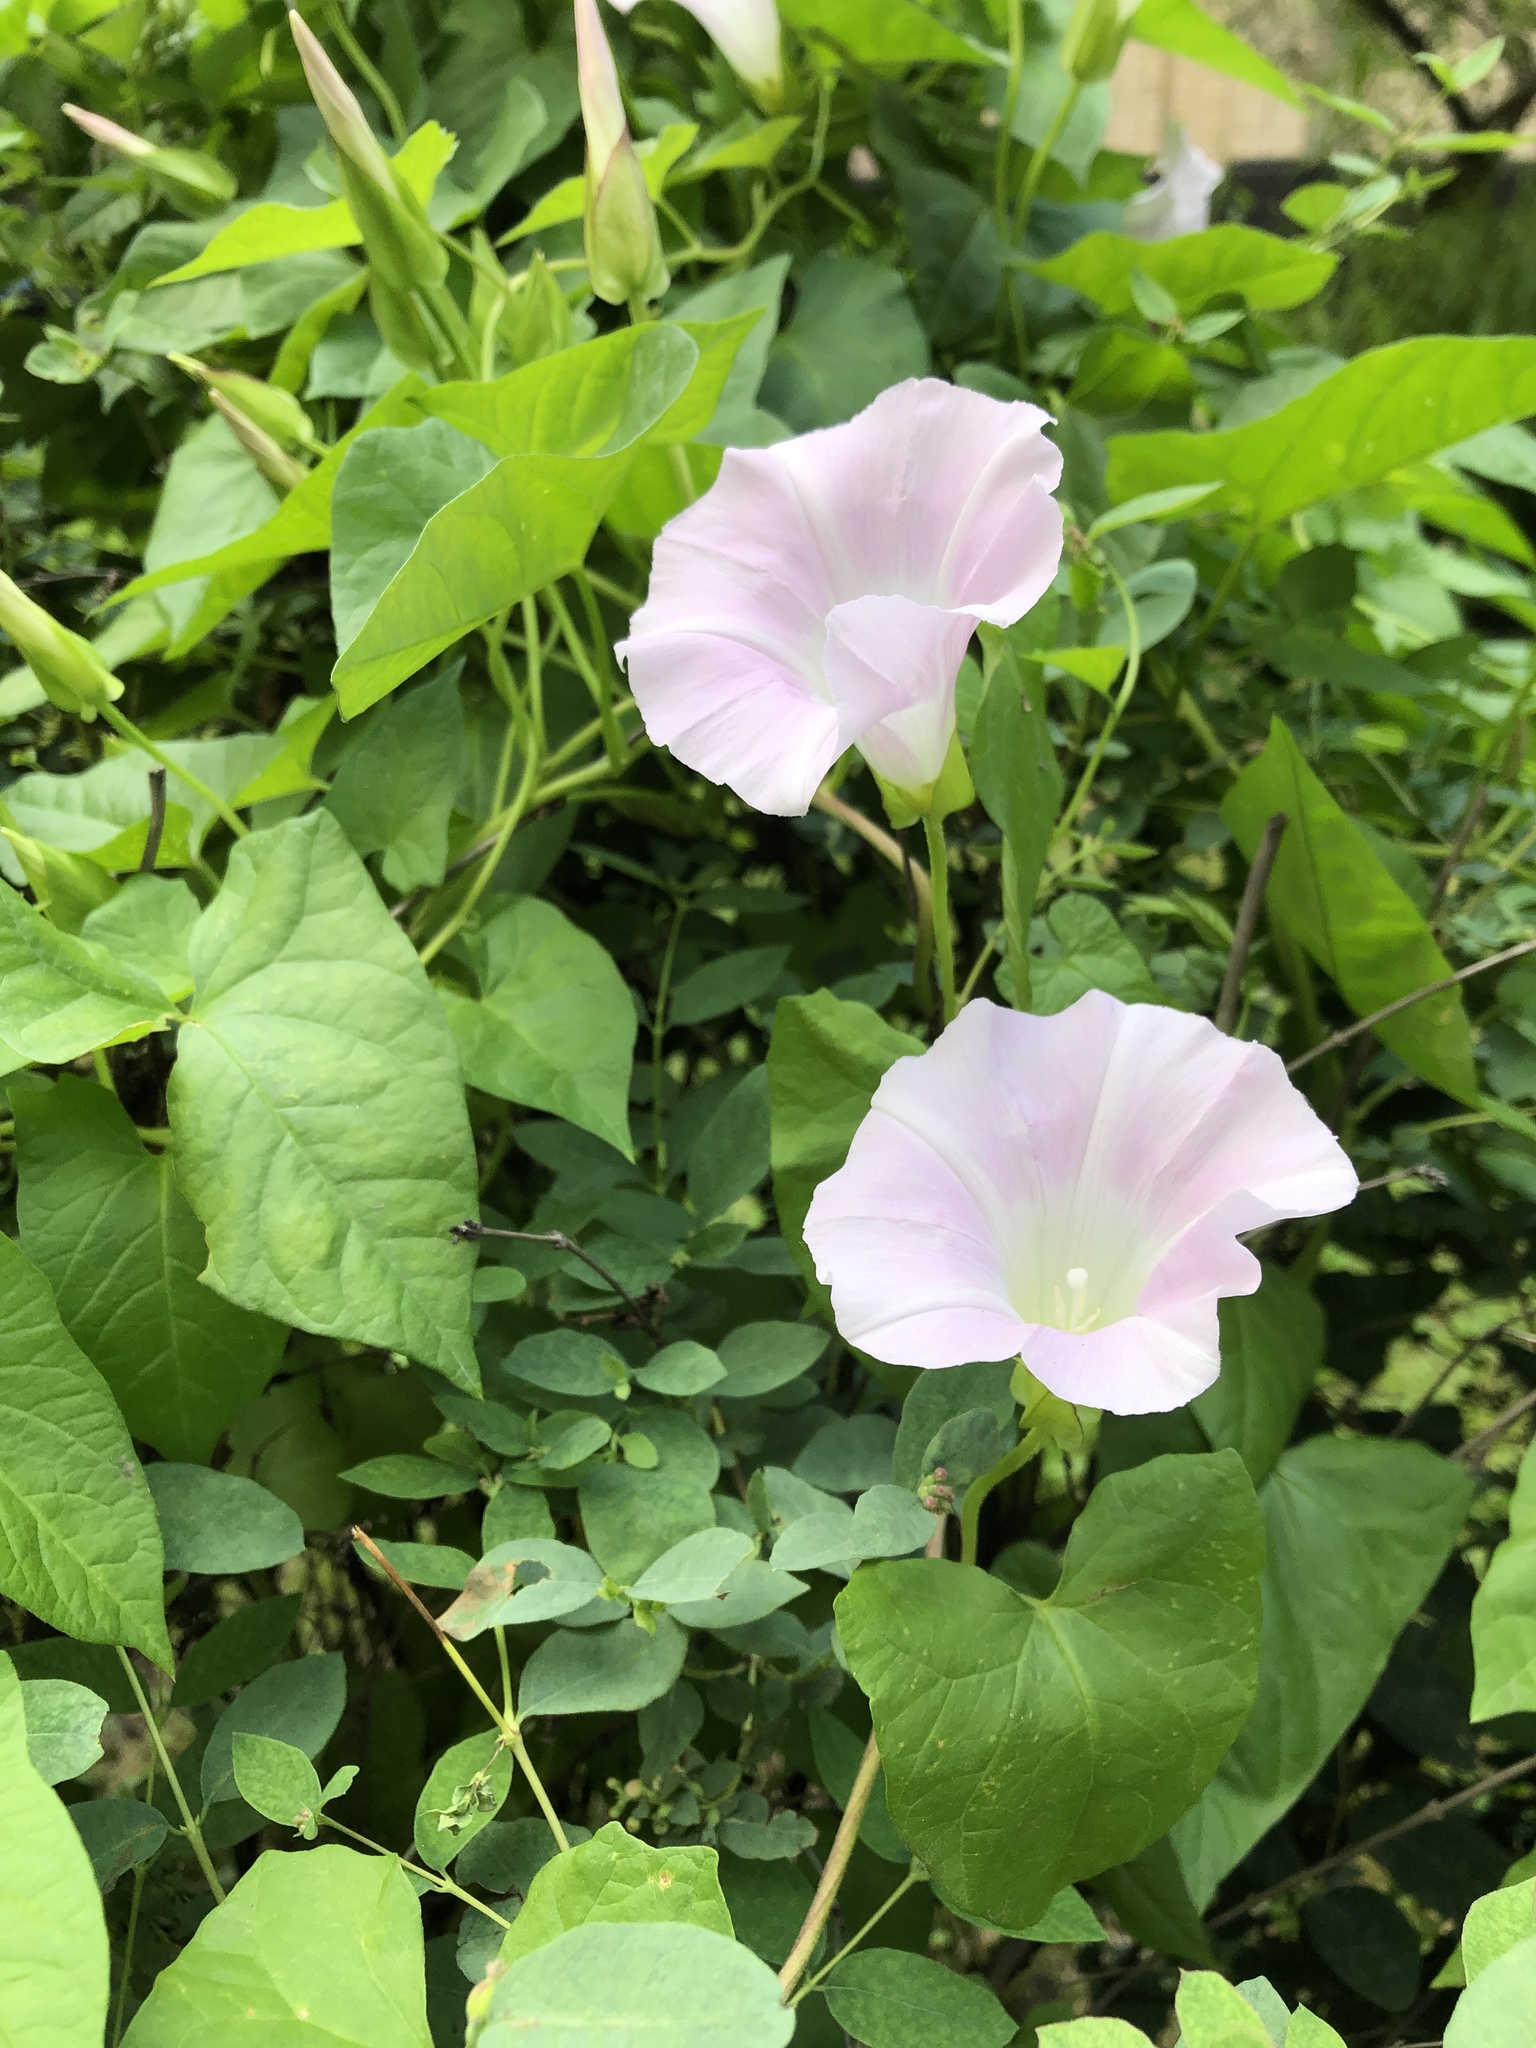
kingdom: Plantae
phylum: Tracheophyta
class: Magnoliopsida
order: Solanales
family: Convolvulaceae
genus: Calystegia
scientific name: Calystegia sepium
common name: Hedge bindweed
